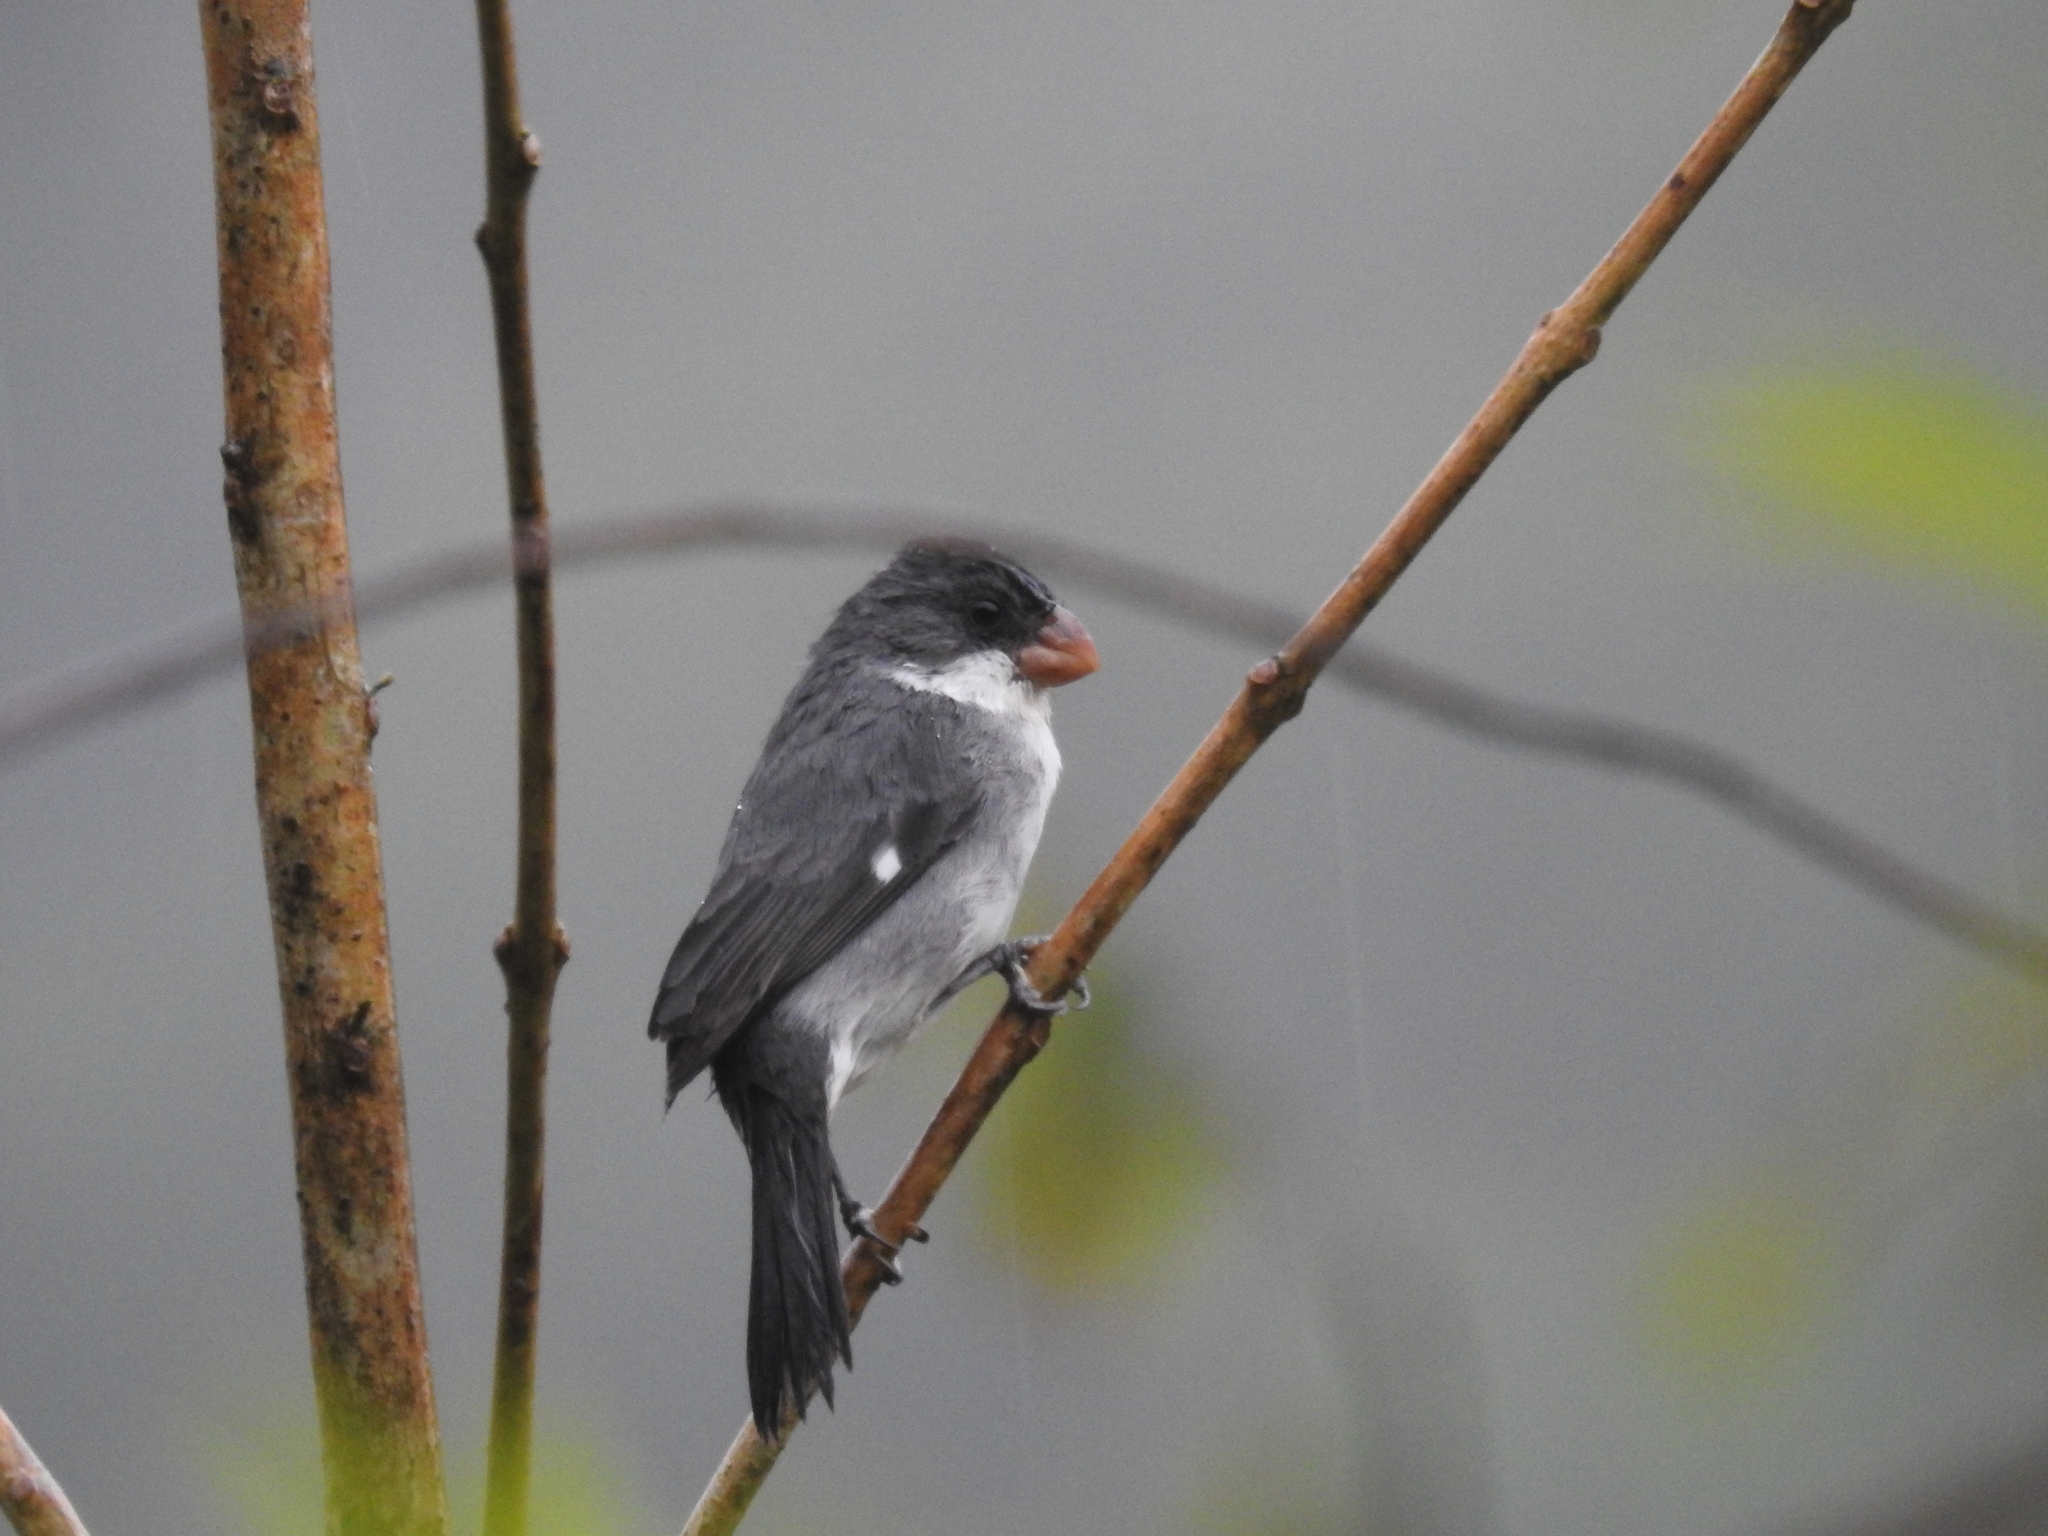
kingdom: Animalia
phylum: Chordata
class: Aves
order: Passeriformes
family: Thraupidae
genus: Sporophila
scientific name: Sporophila leucoptera
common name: White-bellied seedeater
